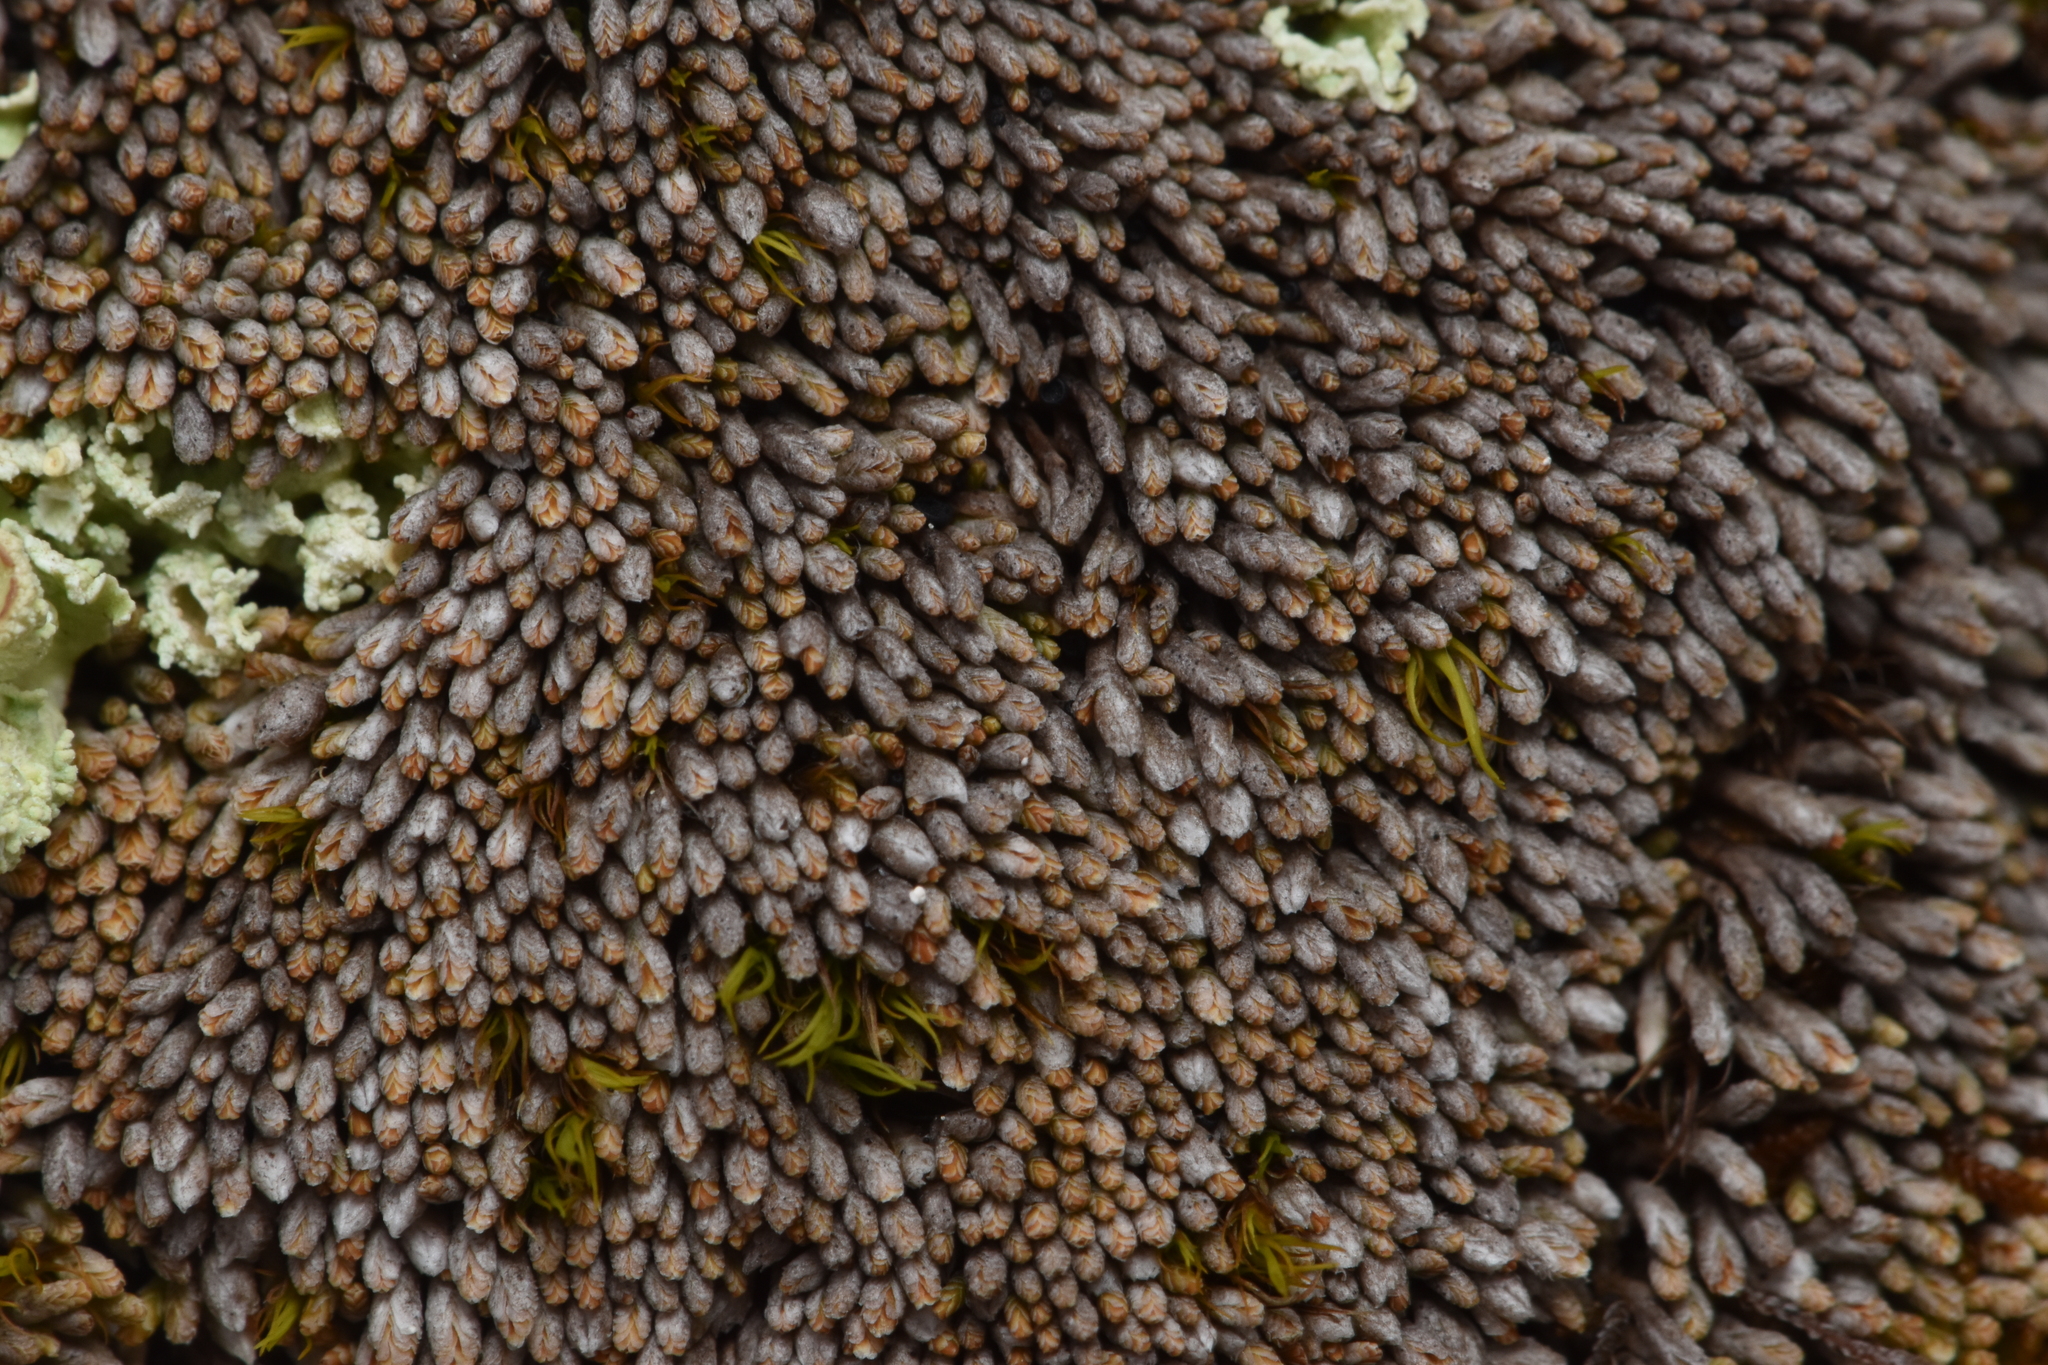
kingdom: Plantae
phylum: Marchantiophyta
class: Jungermanniopsida
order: Jungermanniales
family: Gymnomitriaceae
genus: Gymnomitrion
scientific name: Gymnomitrion obtusum
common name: White frostwort
